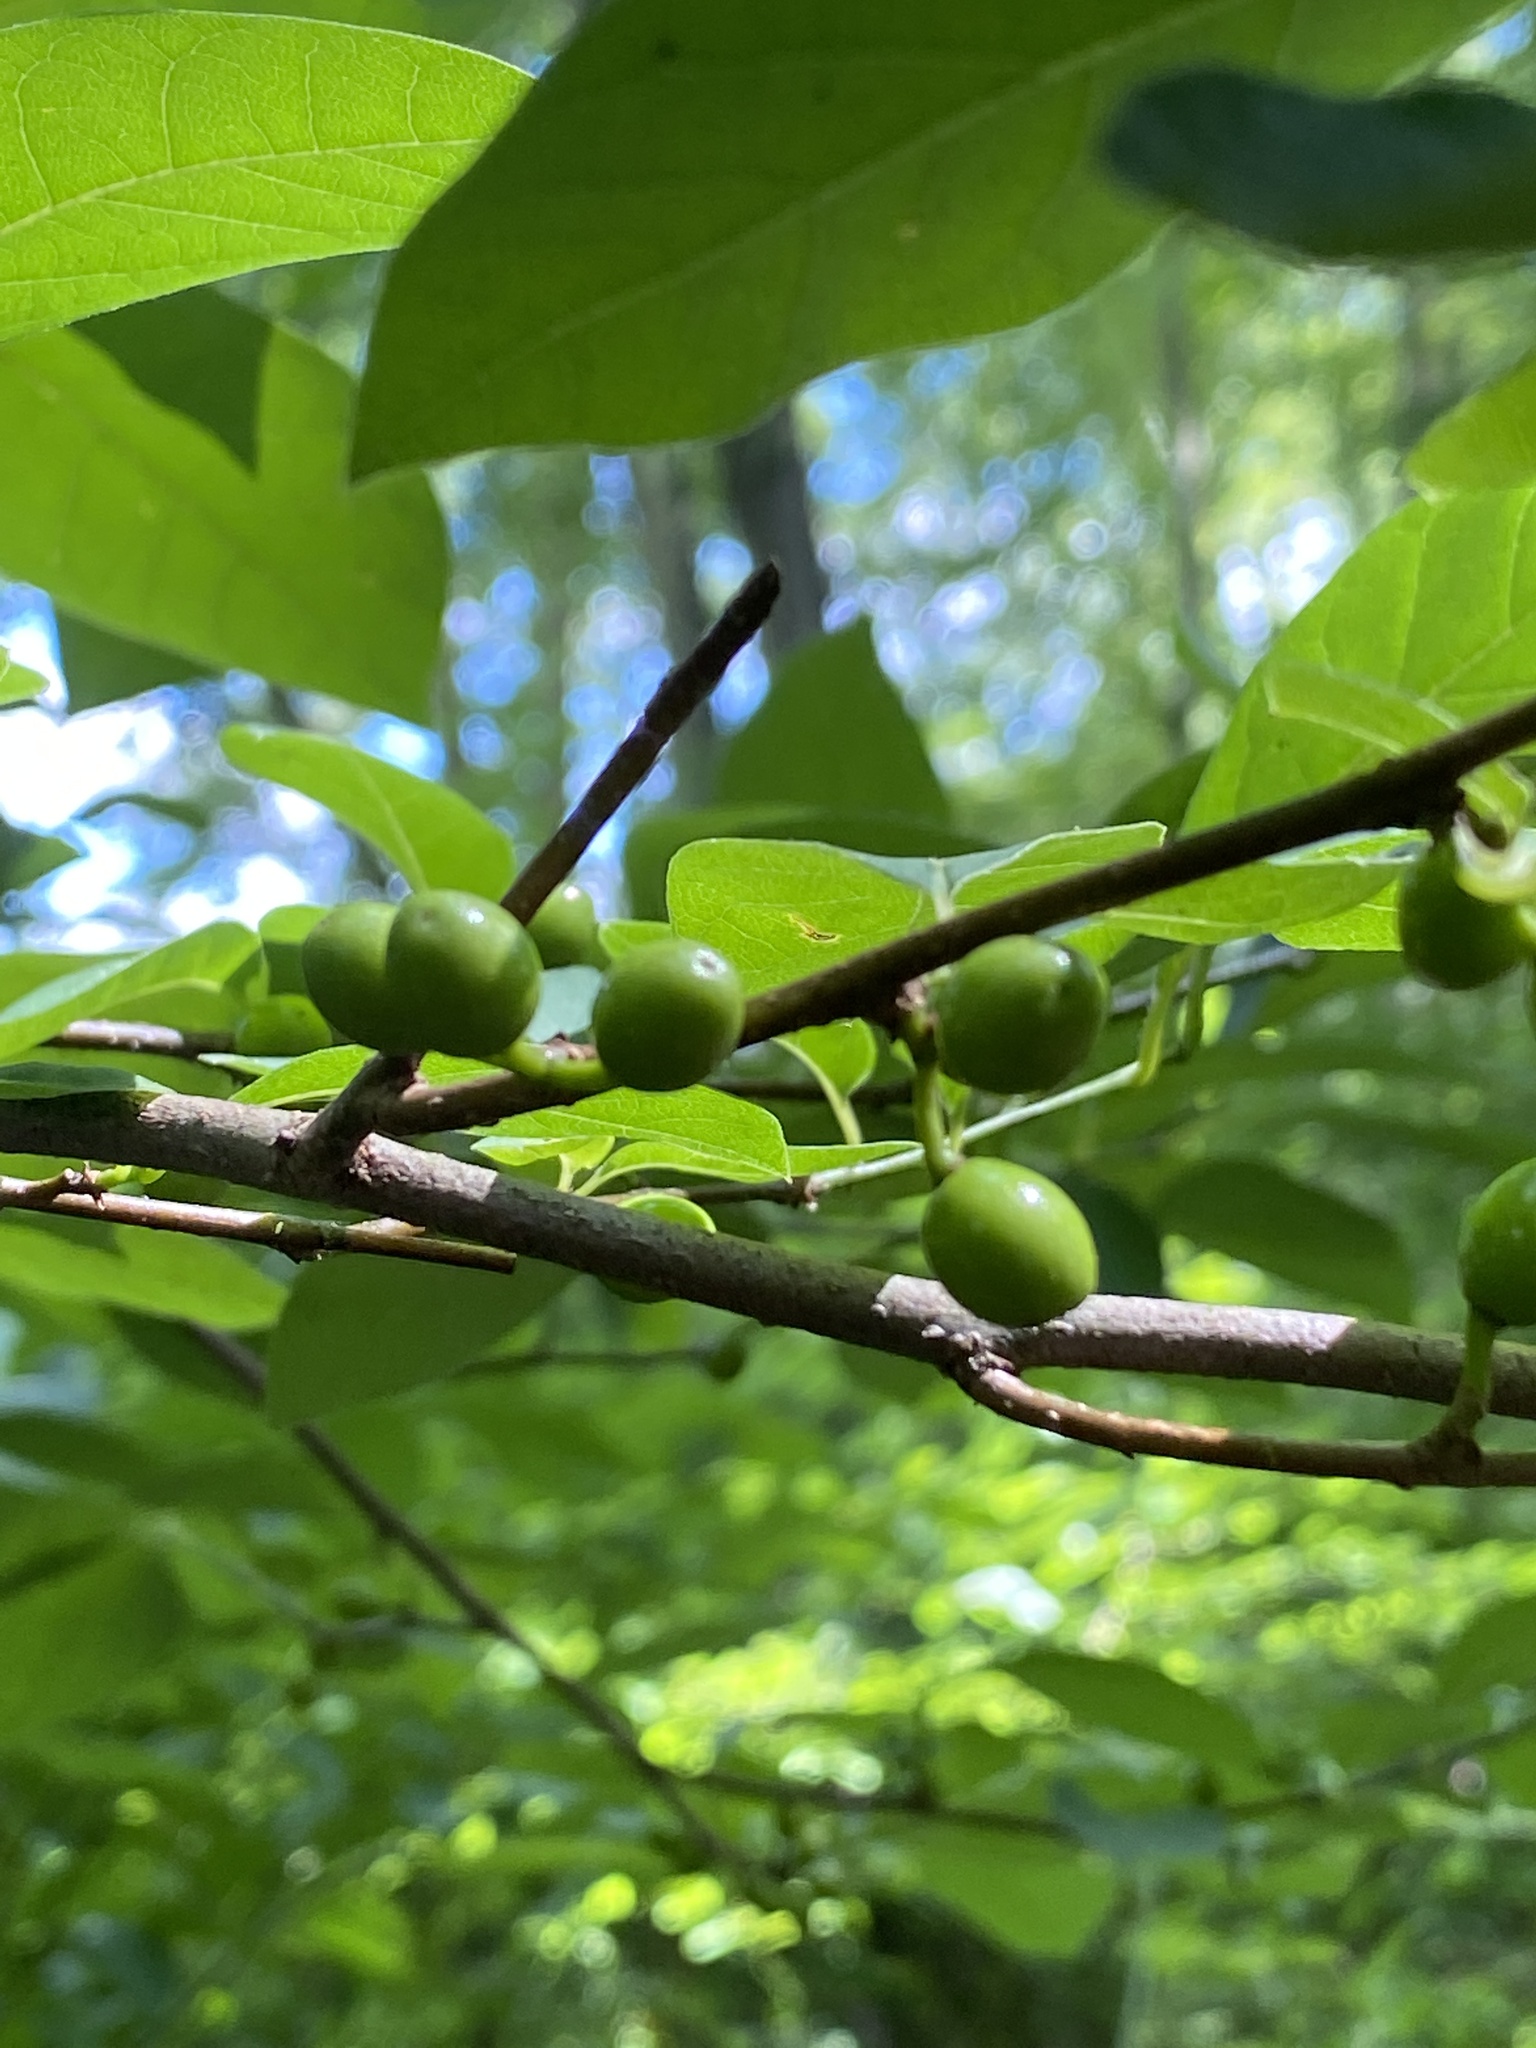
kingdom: Plantae
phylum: Tracheophyta
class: Magnoliopsida
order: Laurales
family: Lauraceae
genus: Lindera
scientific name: Lindera benzoin
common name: Spicebush
